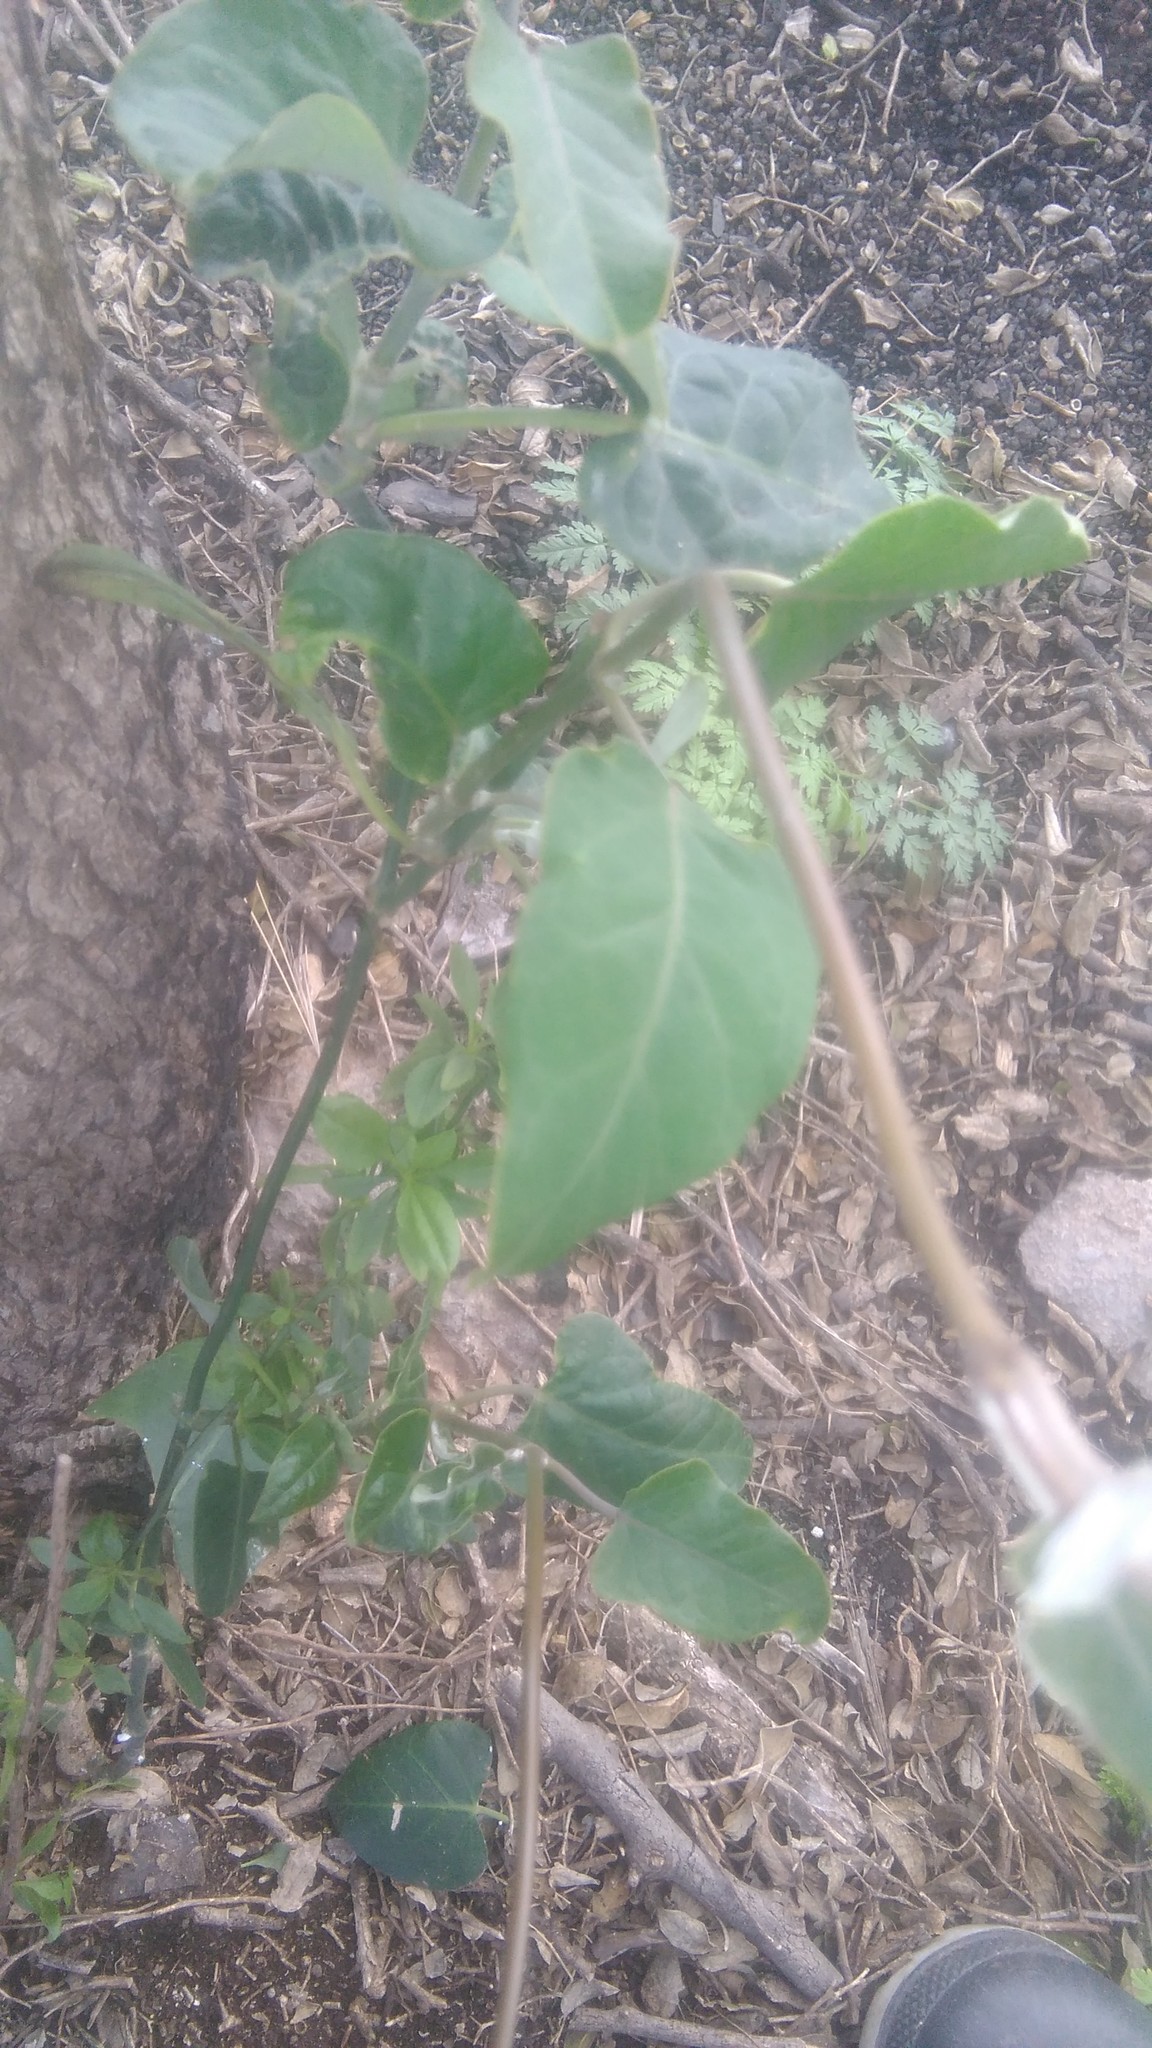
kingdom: Plantae
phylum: Tracheophyta
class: Magnoliopsida
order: Gentianales
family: Apocynaceae
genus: Araujia
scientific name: Araujia sericifera
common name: White bladderflower
